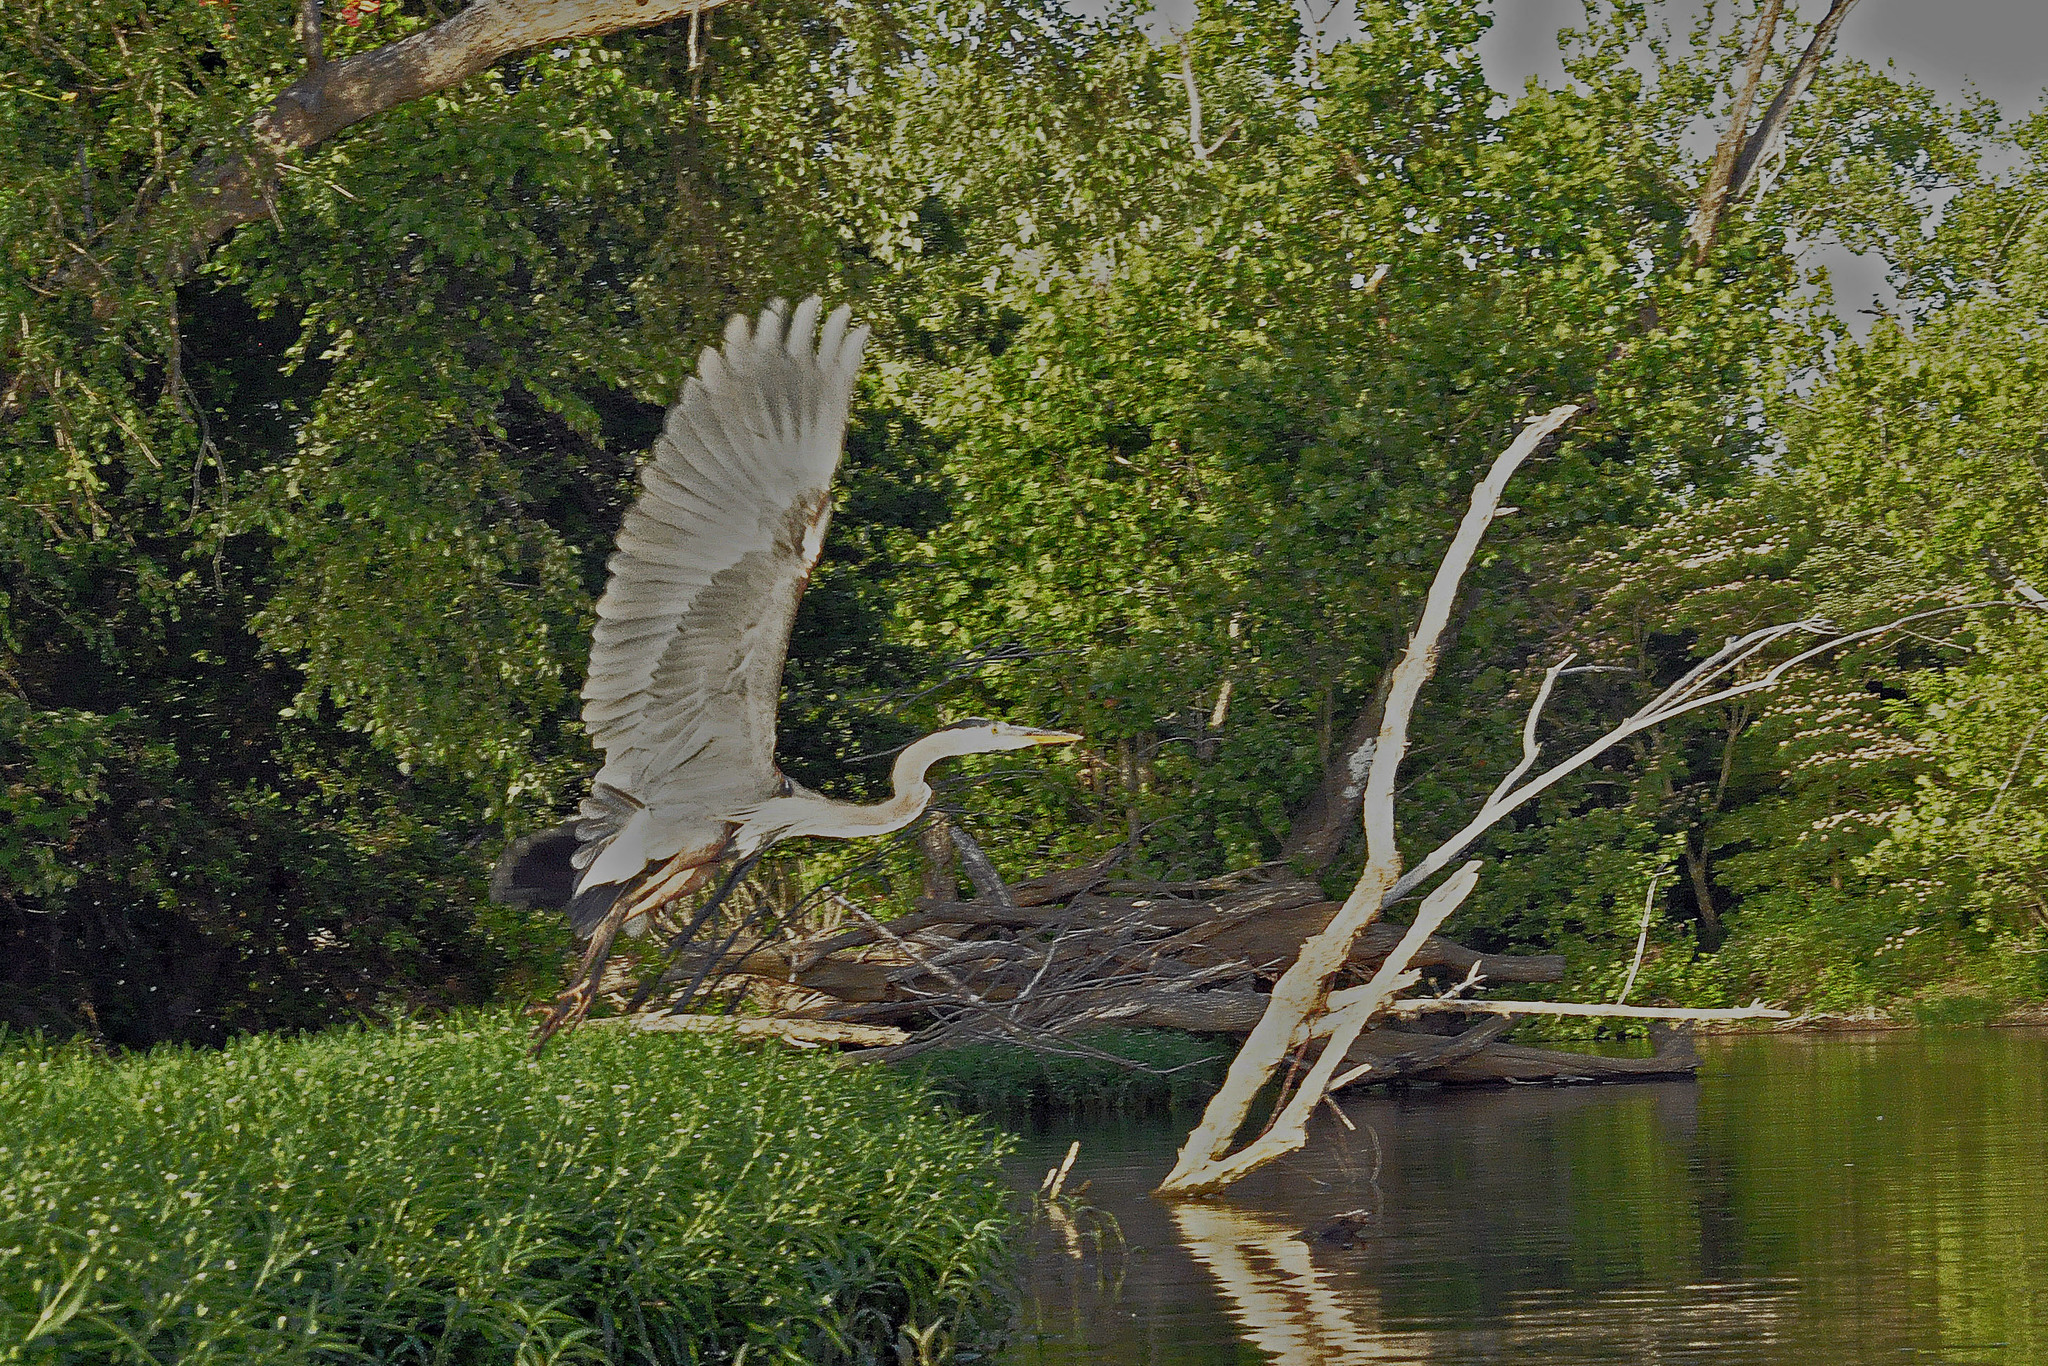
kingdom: Animalia
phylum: Chordata
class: Aves
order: Pelecaniformes
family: Ardeidae
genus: Ardea
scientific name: Ardea herodias
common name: Great blue heron
